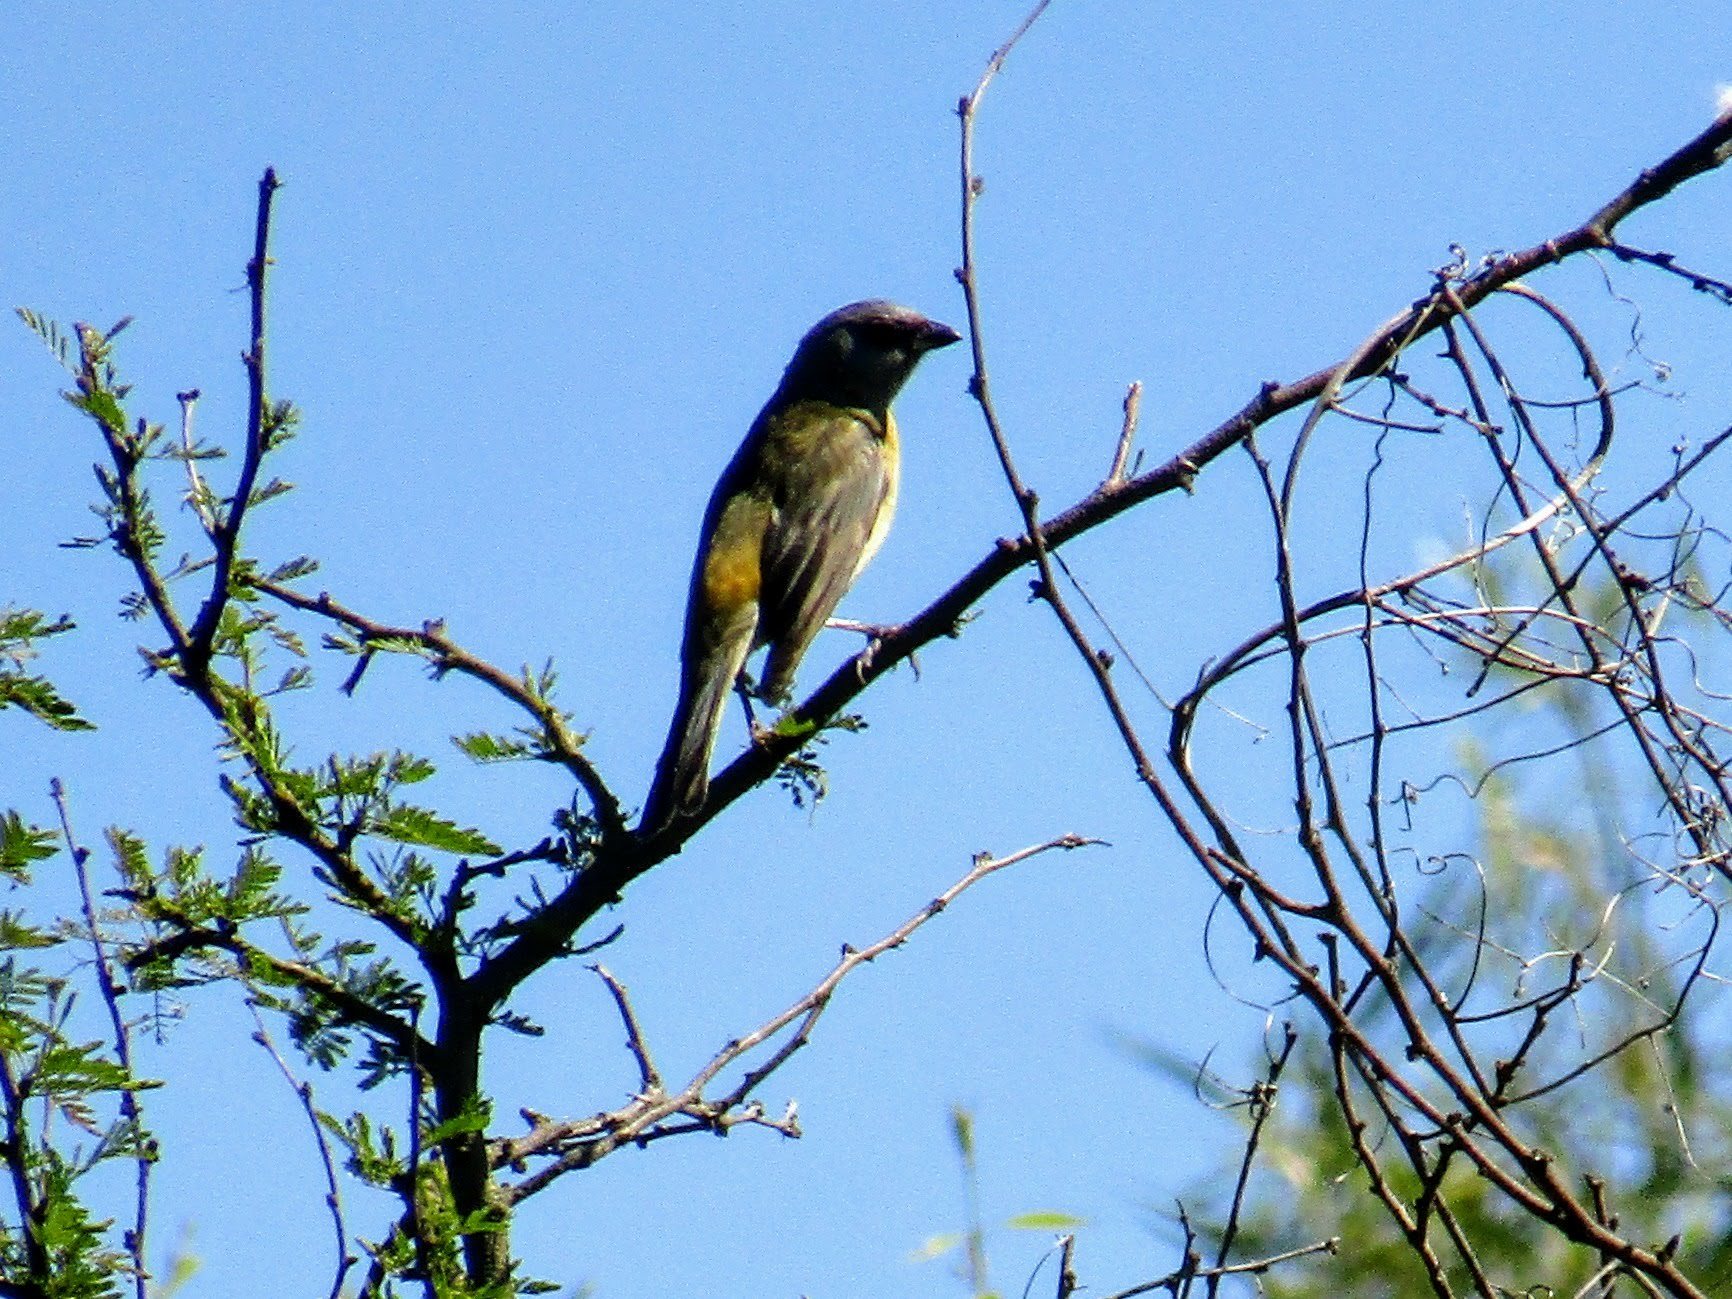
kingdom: Animalia
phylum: Chordata
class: Aves
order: Passeriformes
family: Thraupidae
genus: Rauenia
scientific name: Rauenia bonariensis
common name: Blue-and-yellow tanager
